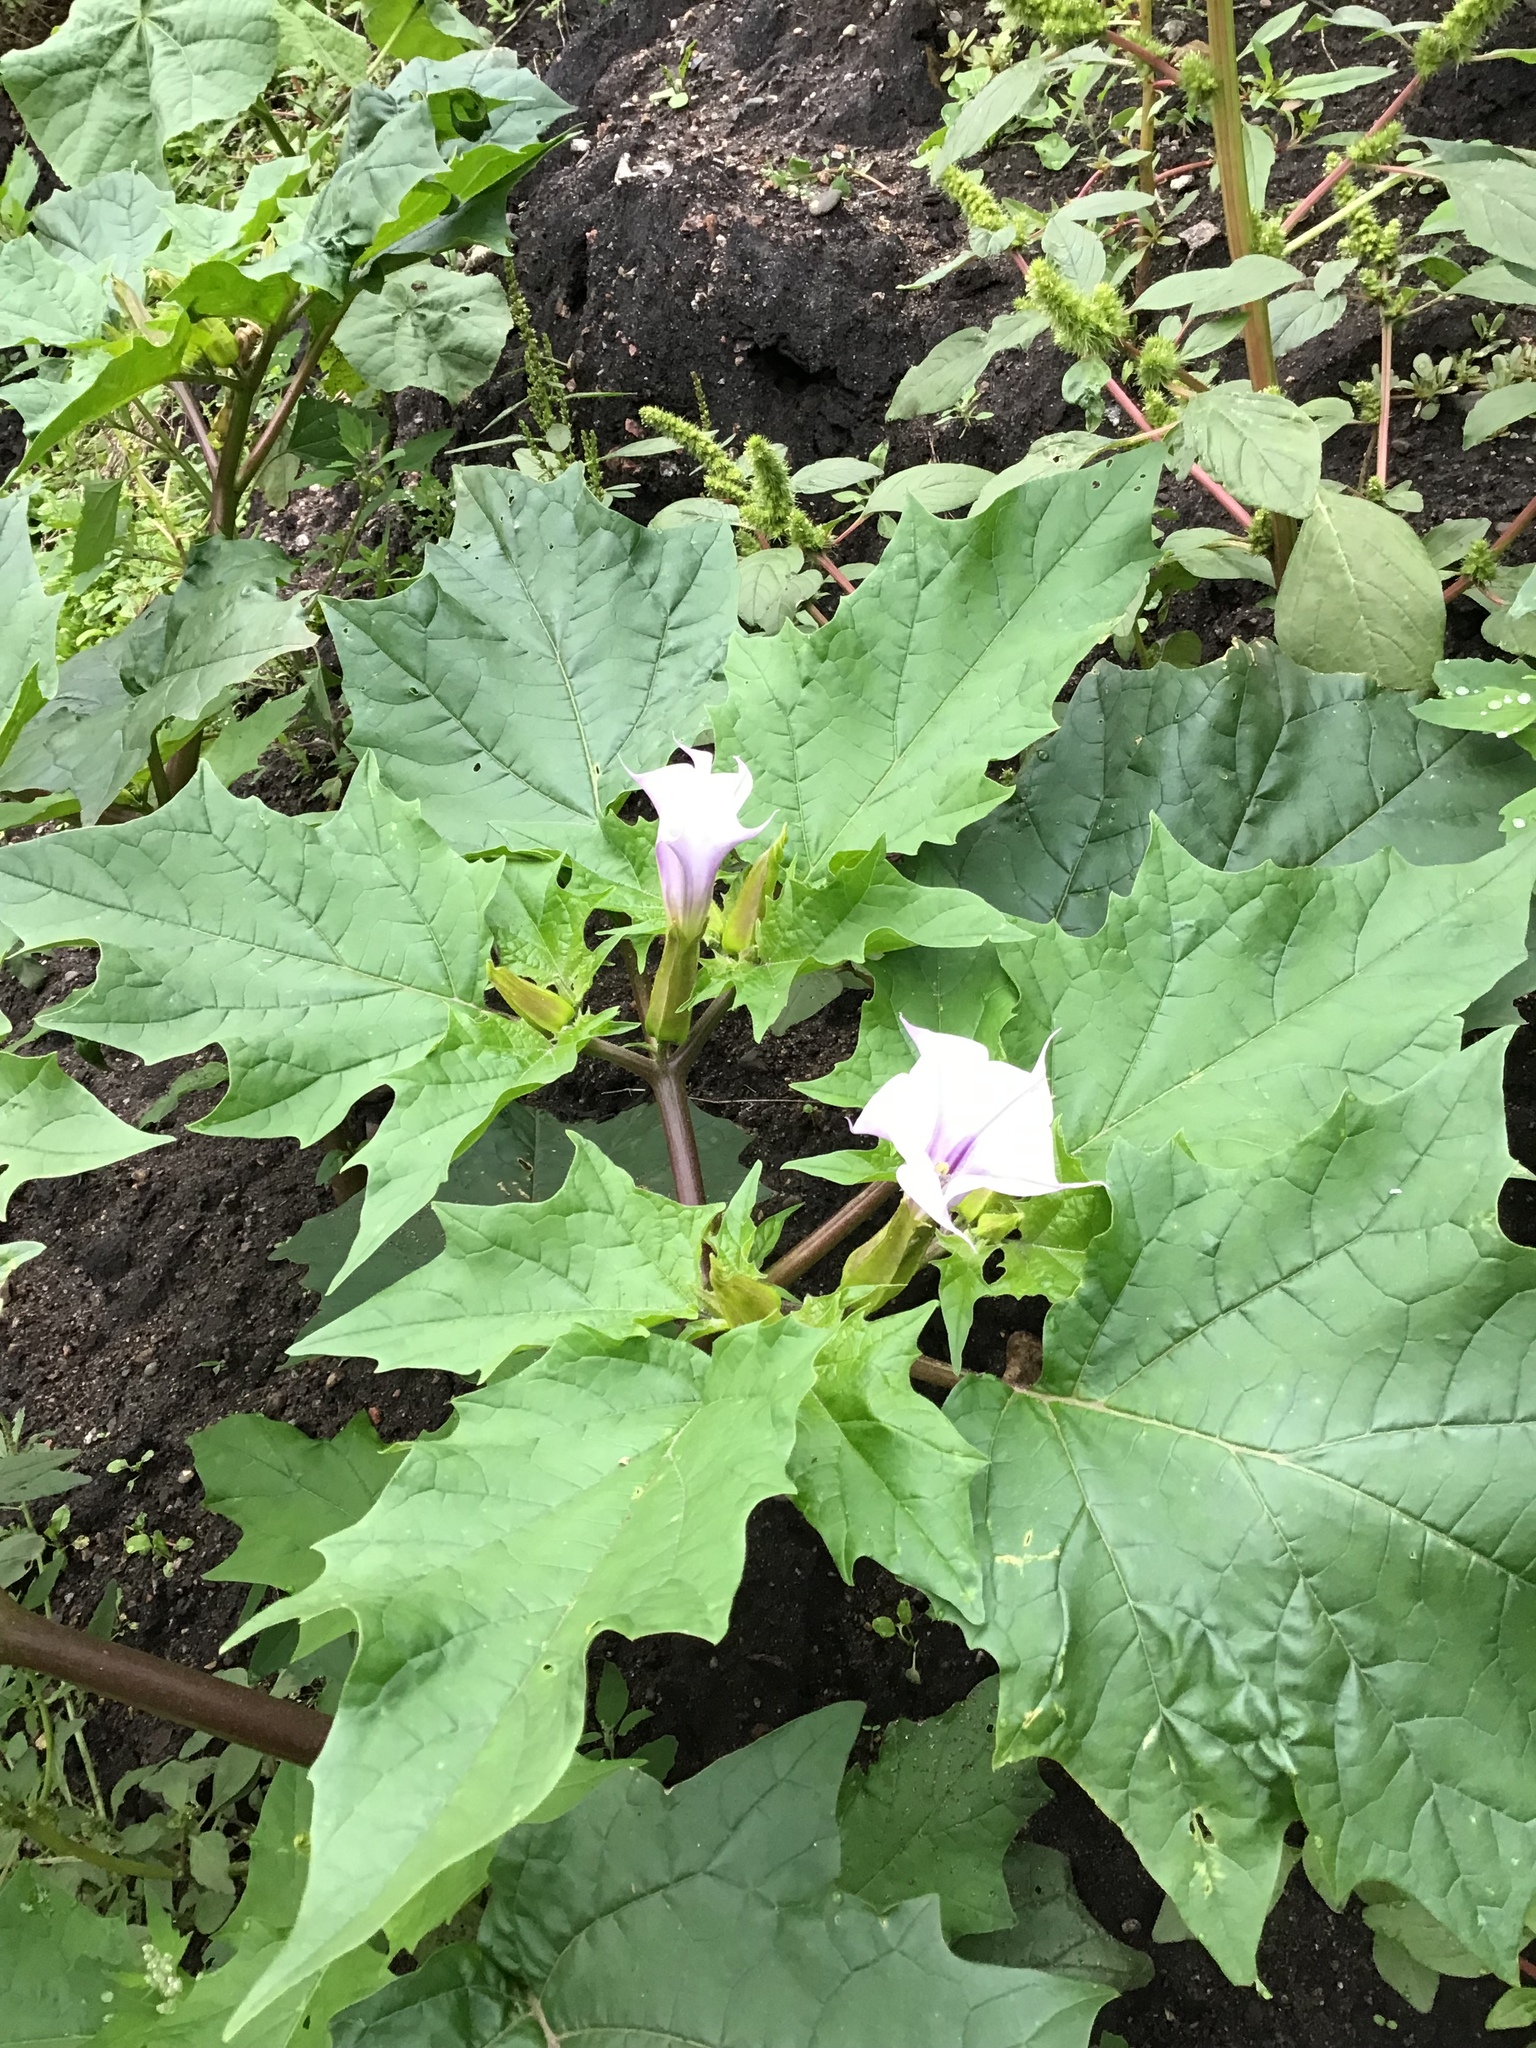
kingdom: Plantae
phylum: Tracheophyta
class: Magnoliopsida
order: Solanales
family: Solanaceae
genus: Datura
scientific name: Datura stramonium
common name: Thorn-apple
